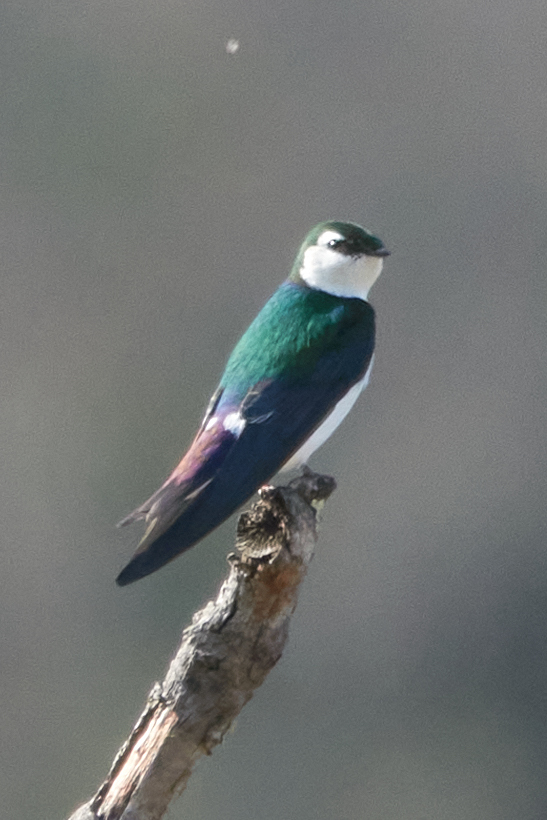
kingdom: Animalia
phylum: Chordata
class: Aves
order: Passeriformes
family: Hirundinidae
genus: Tachycineta
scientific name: Tachycineta thalassina
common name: Violet-green swallow
